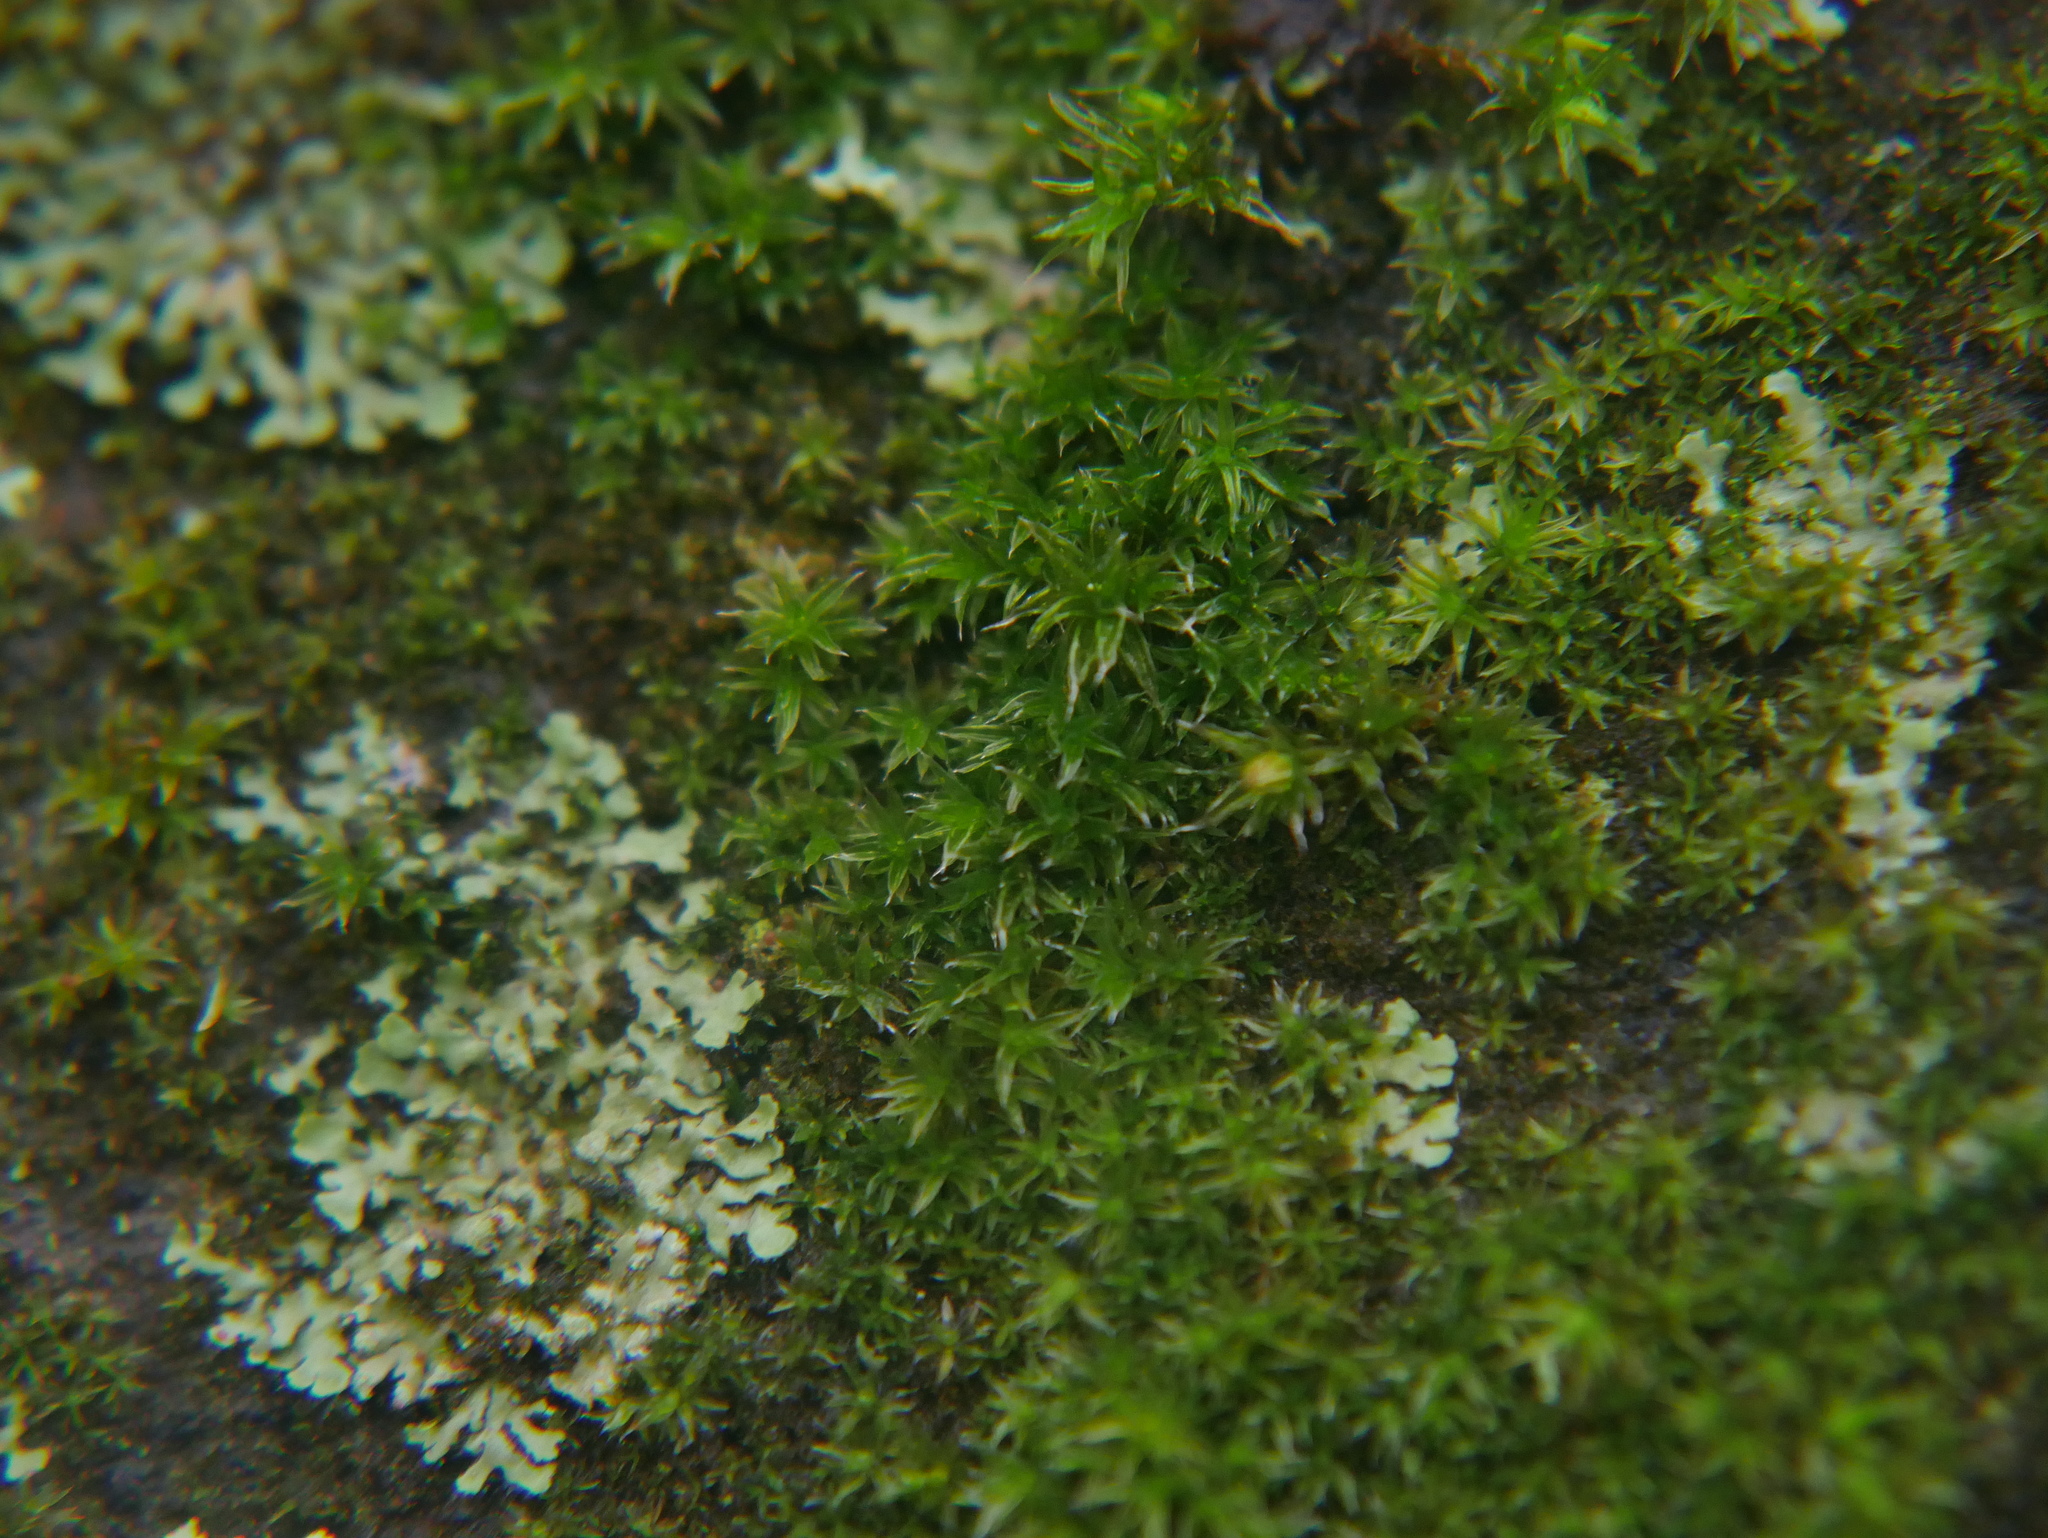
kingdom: Plantae
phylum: Bryophyta
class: Bryopsida
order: Orthotrichales
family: Orthotrichaceae
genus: Orthotrichum
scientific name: Orthotrichum diaphanum
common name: White-tipped bristle-moss
